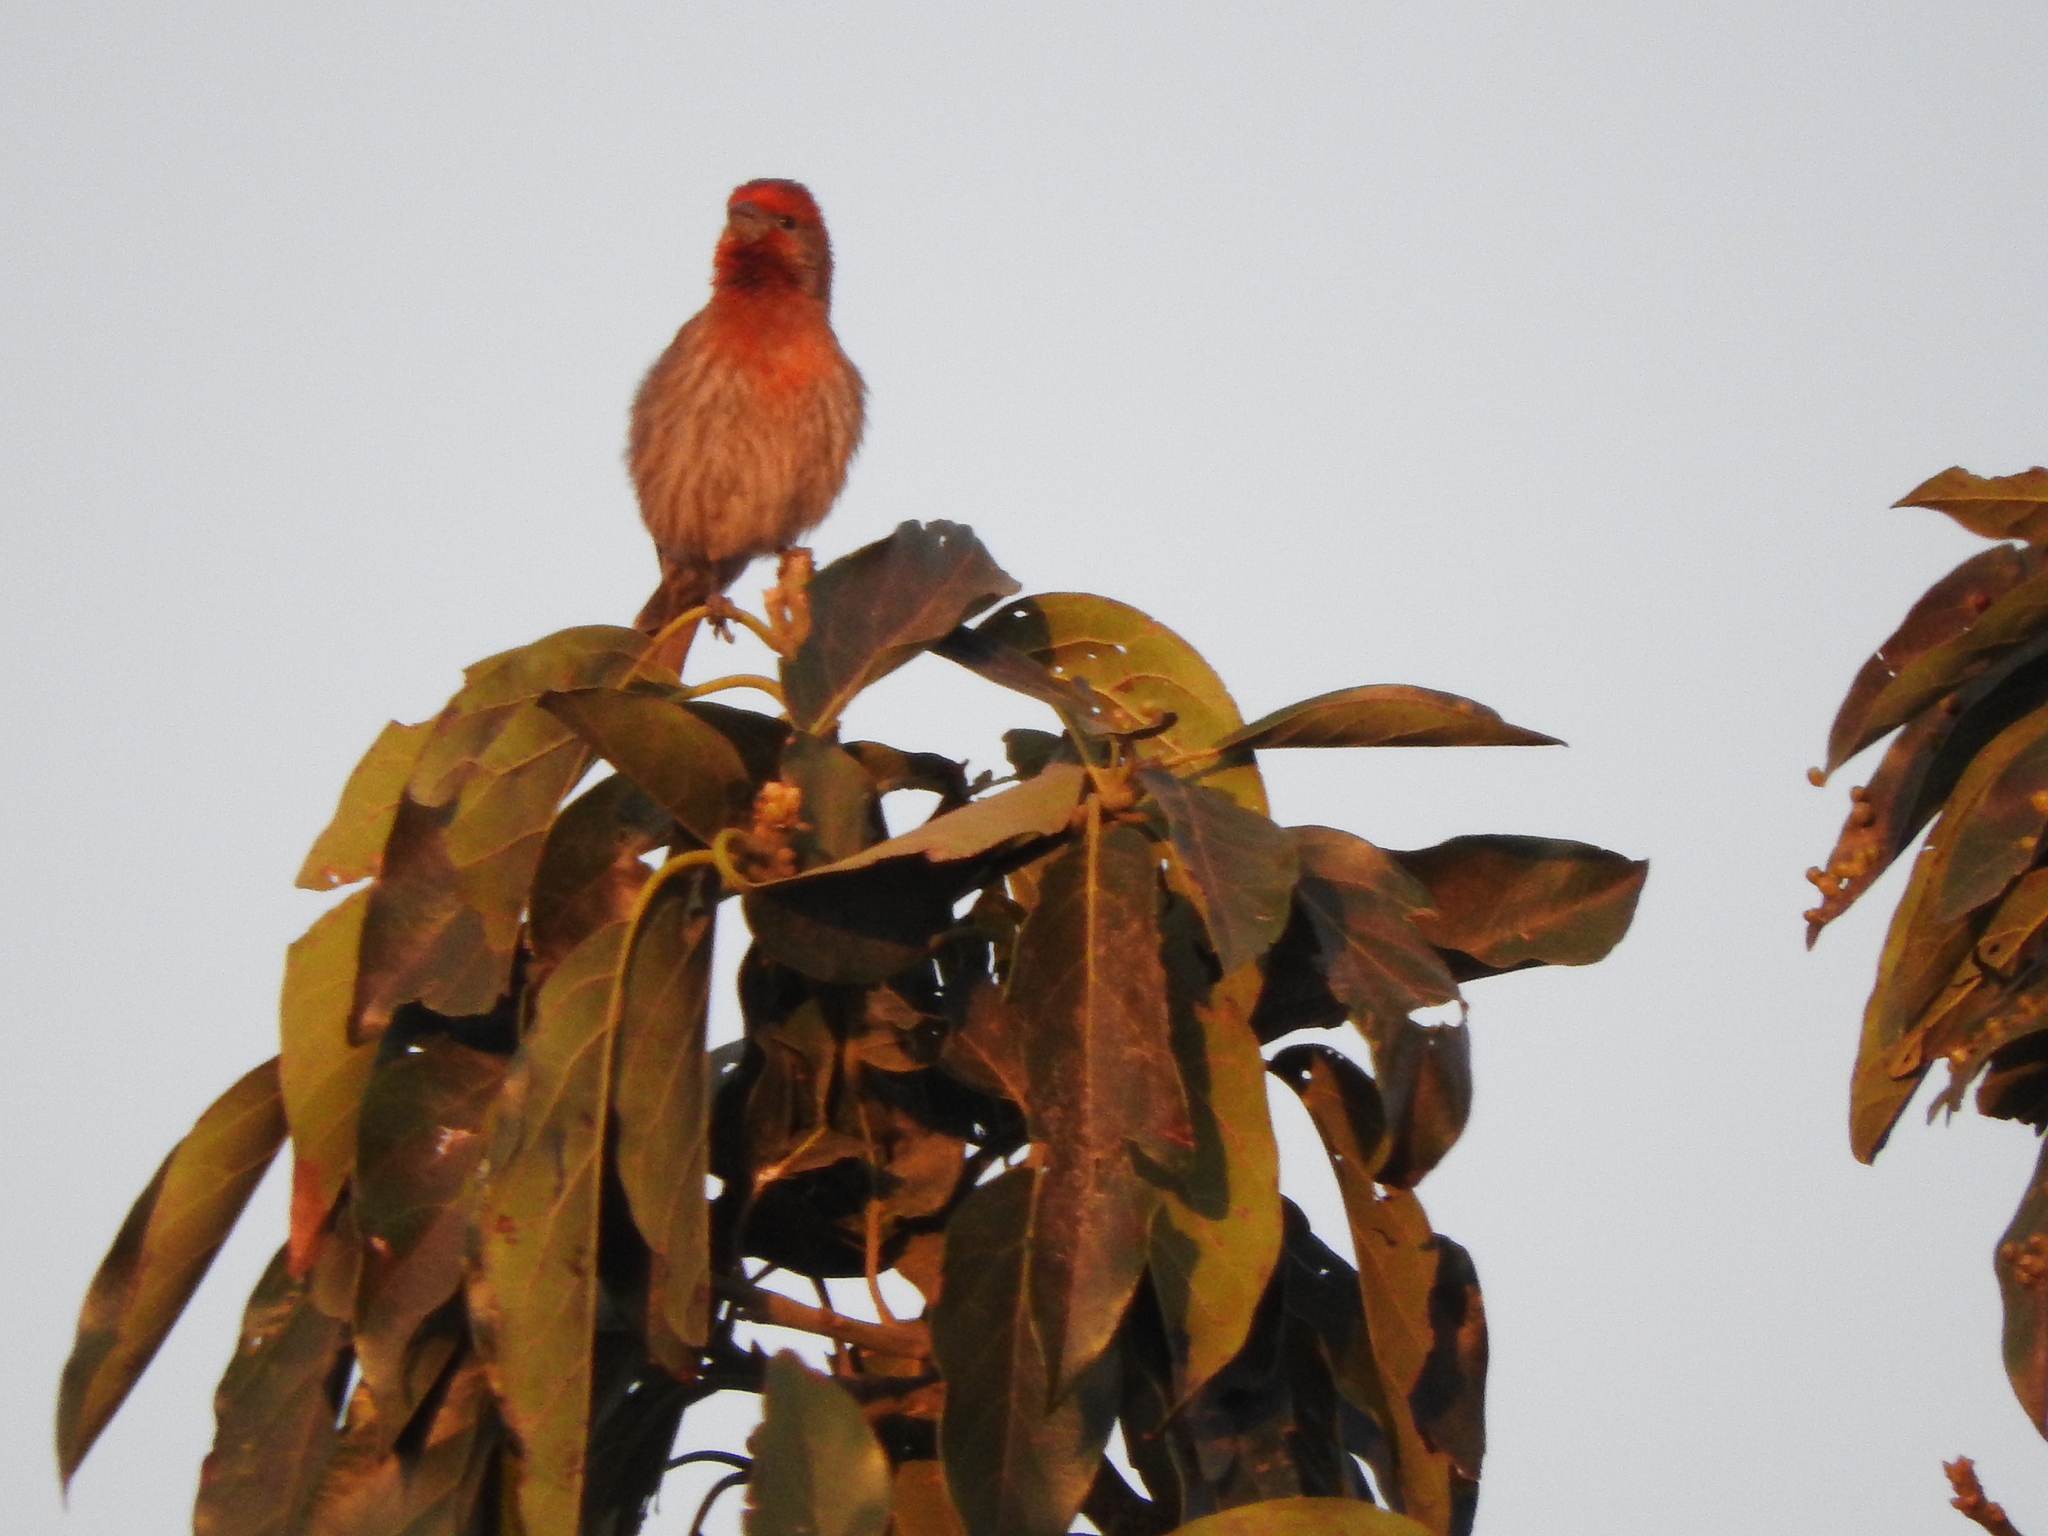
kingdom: Animalia
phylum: Chordata
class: Aves
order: Passeriformes
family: Fringillidae
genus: Haemorhous
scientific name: Haemorhous mexicanus
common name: House finch
